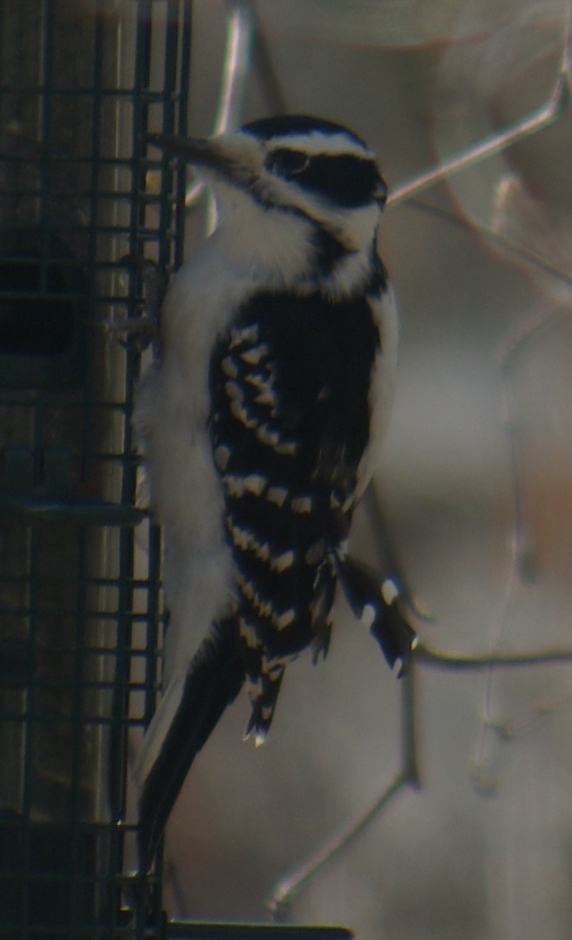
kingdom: Animalia
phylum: Chordata
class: Aves
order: Piciformes
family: Picidae
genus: Leuconotopicus
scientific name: Leuconotopicus villosus
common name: Hairy woodpecker
